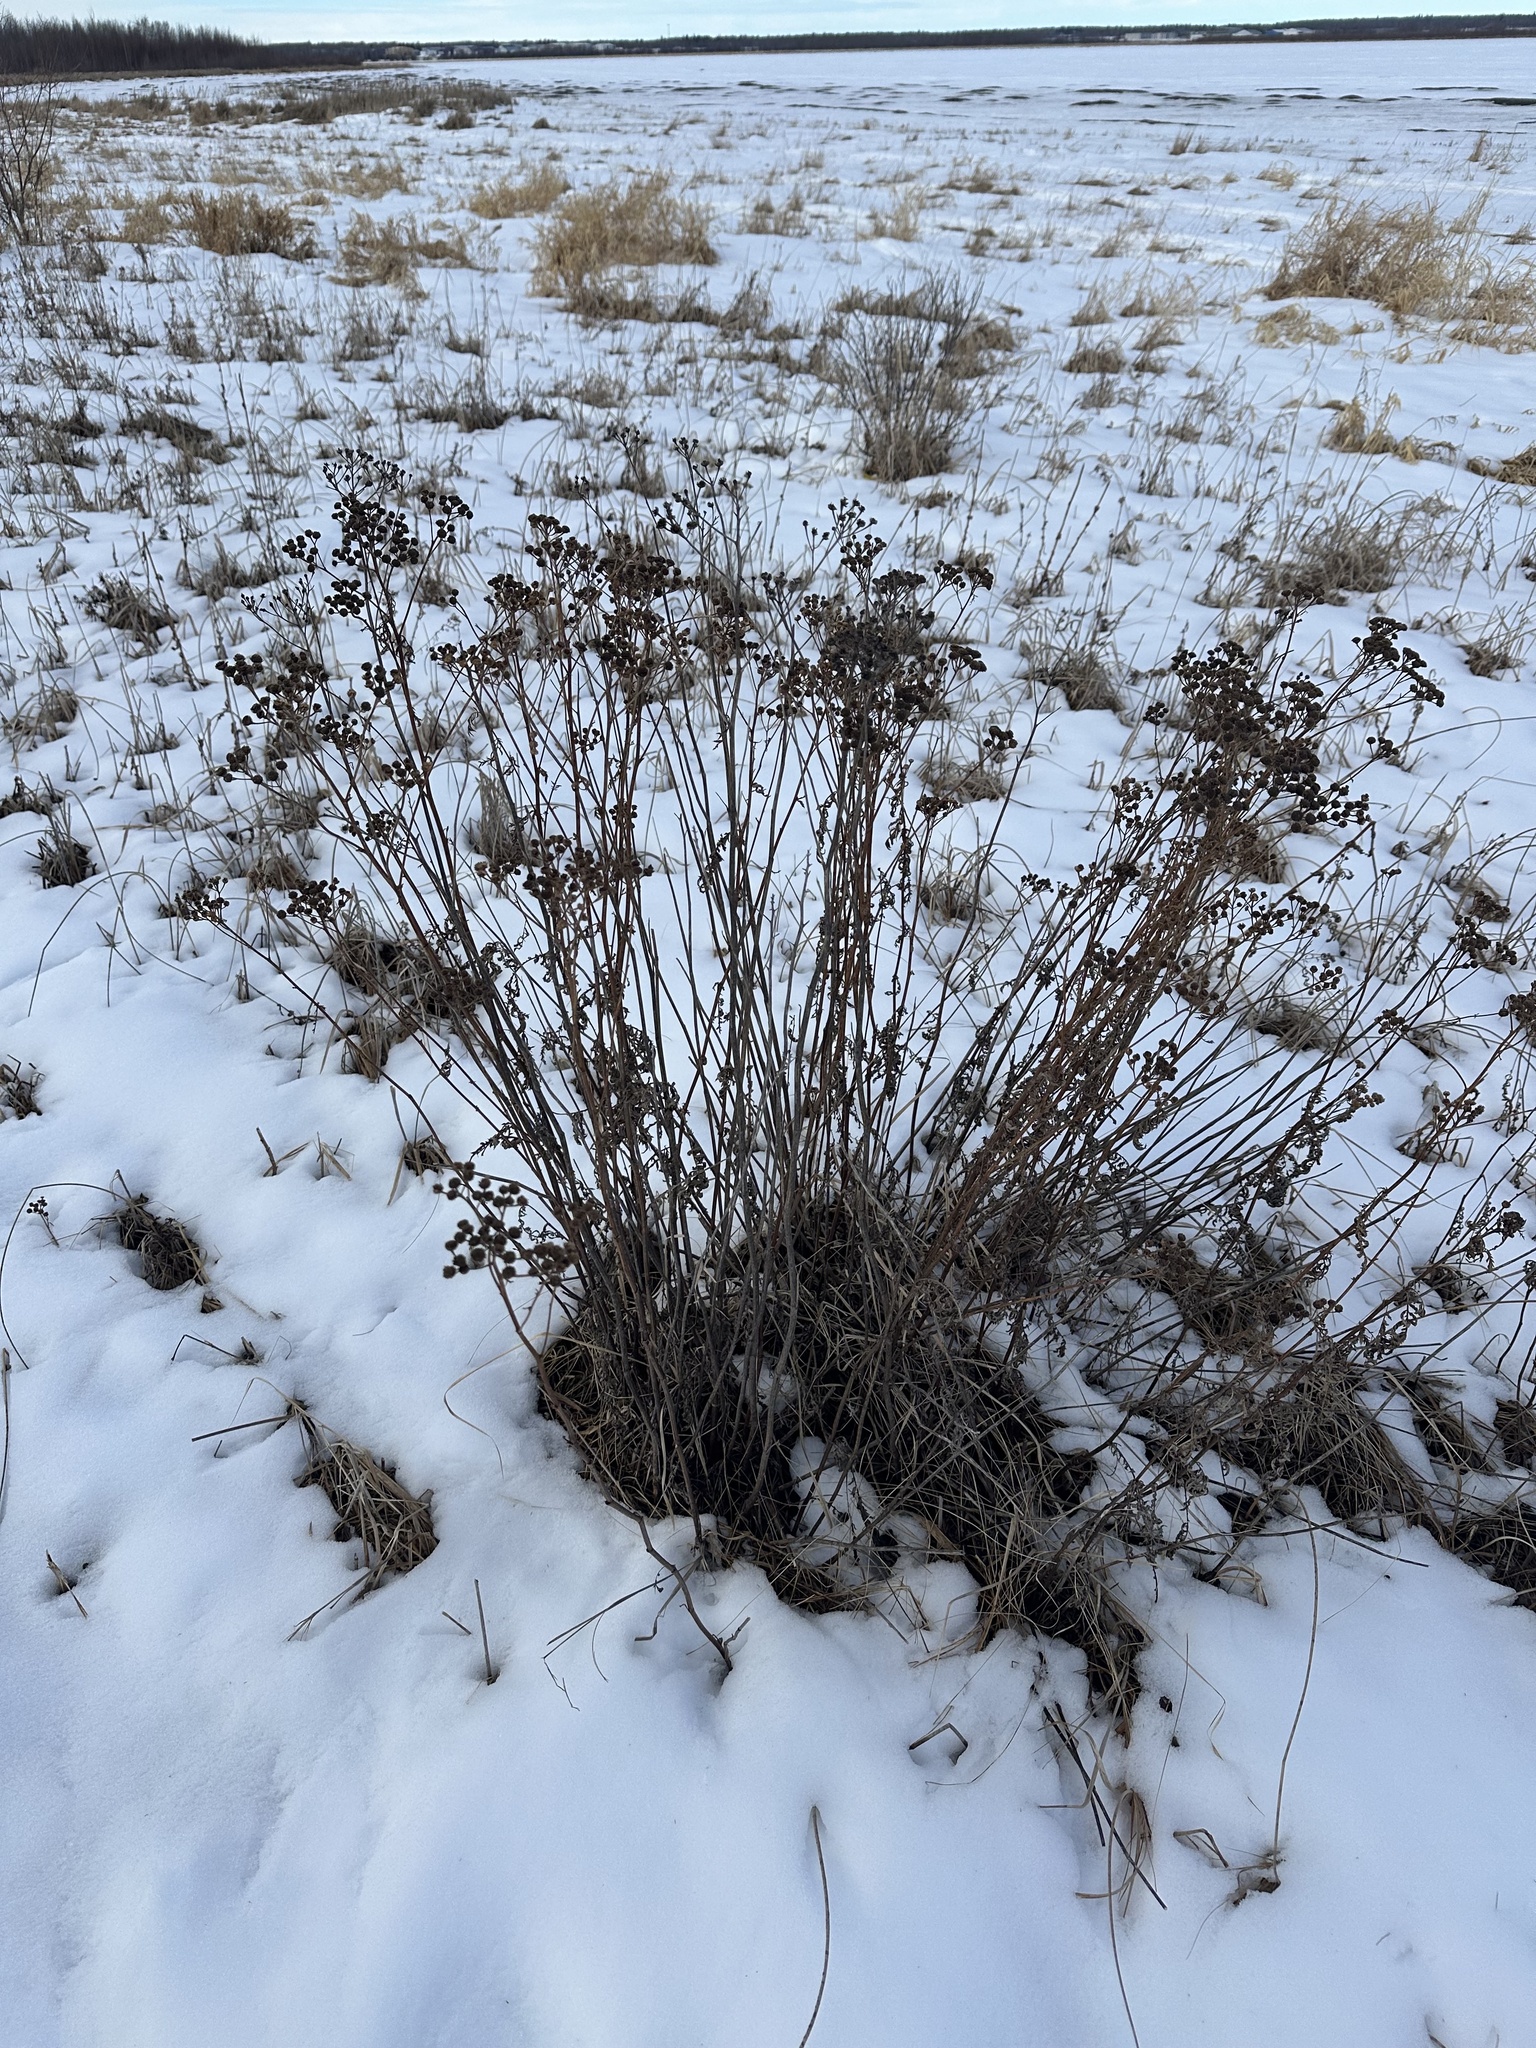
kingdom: Plantae
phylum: Tracheophyta
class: Magnoliopsida
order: Asterales
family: Asteraceae
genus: Tanacetum
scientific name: Tanacetum vulgare
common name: Common tansy
